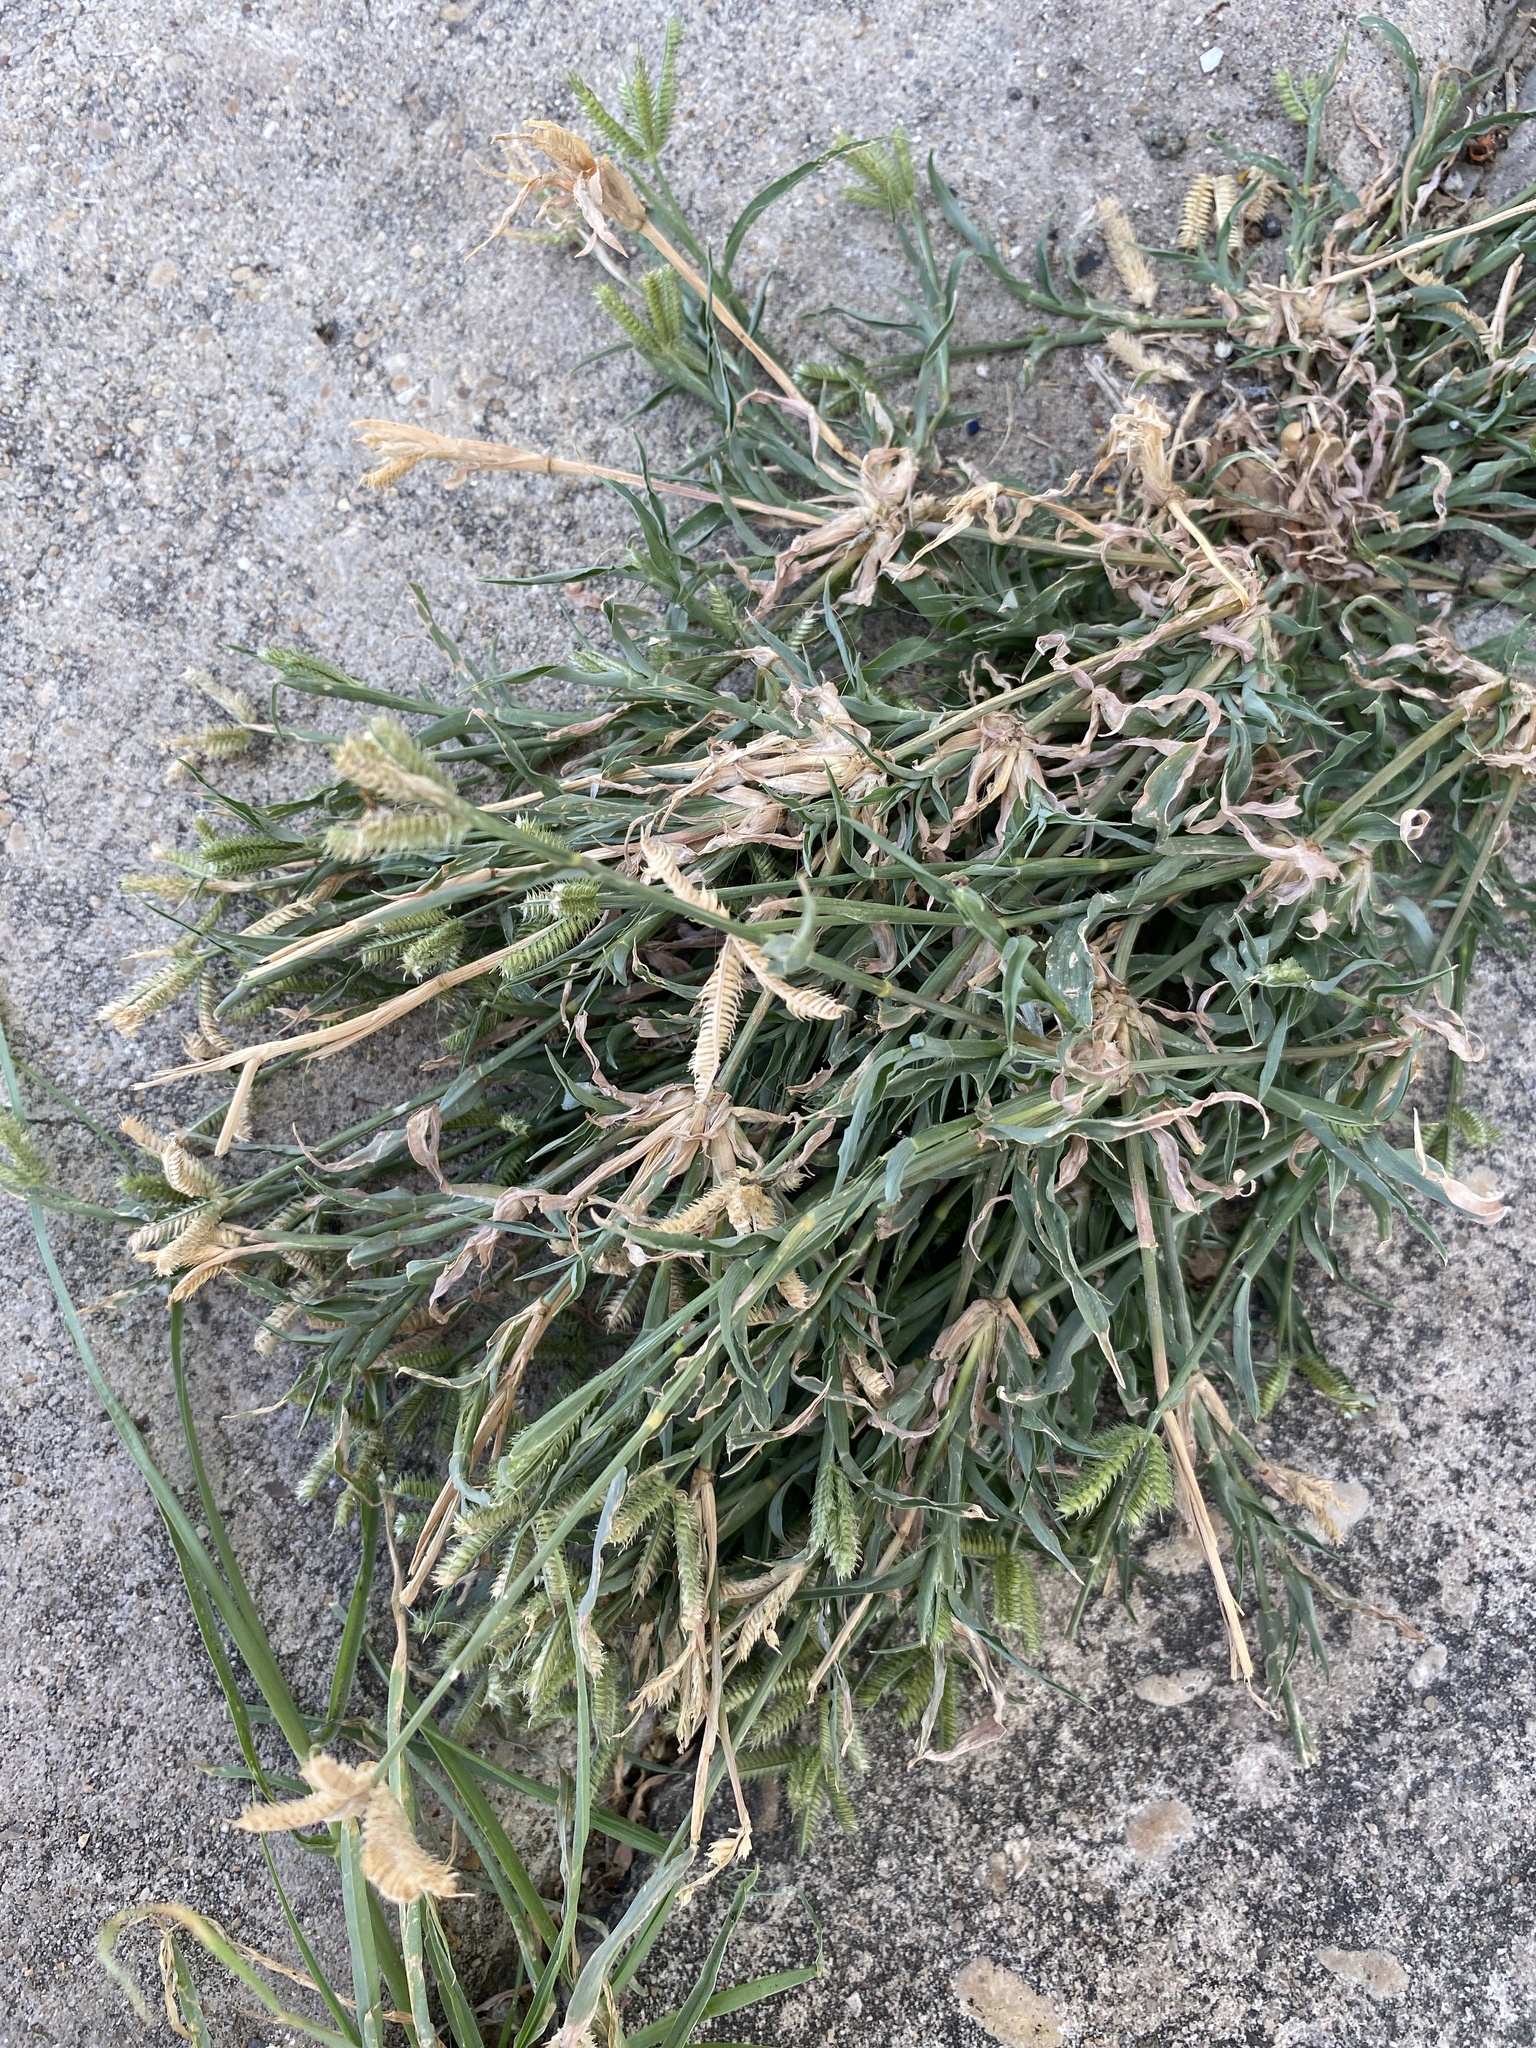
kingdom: Plantae
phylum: Tracheophyta
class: Liliopsida
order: Poales
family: Poaceae
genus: Dactyloctenium
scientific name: Dactyloctenium aegyptium
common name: Egyptian grass
